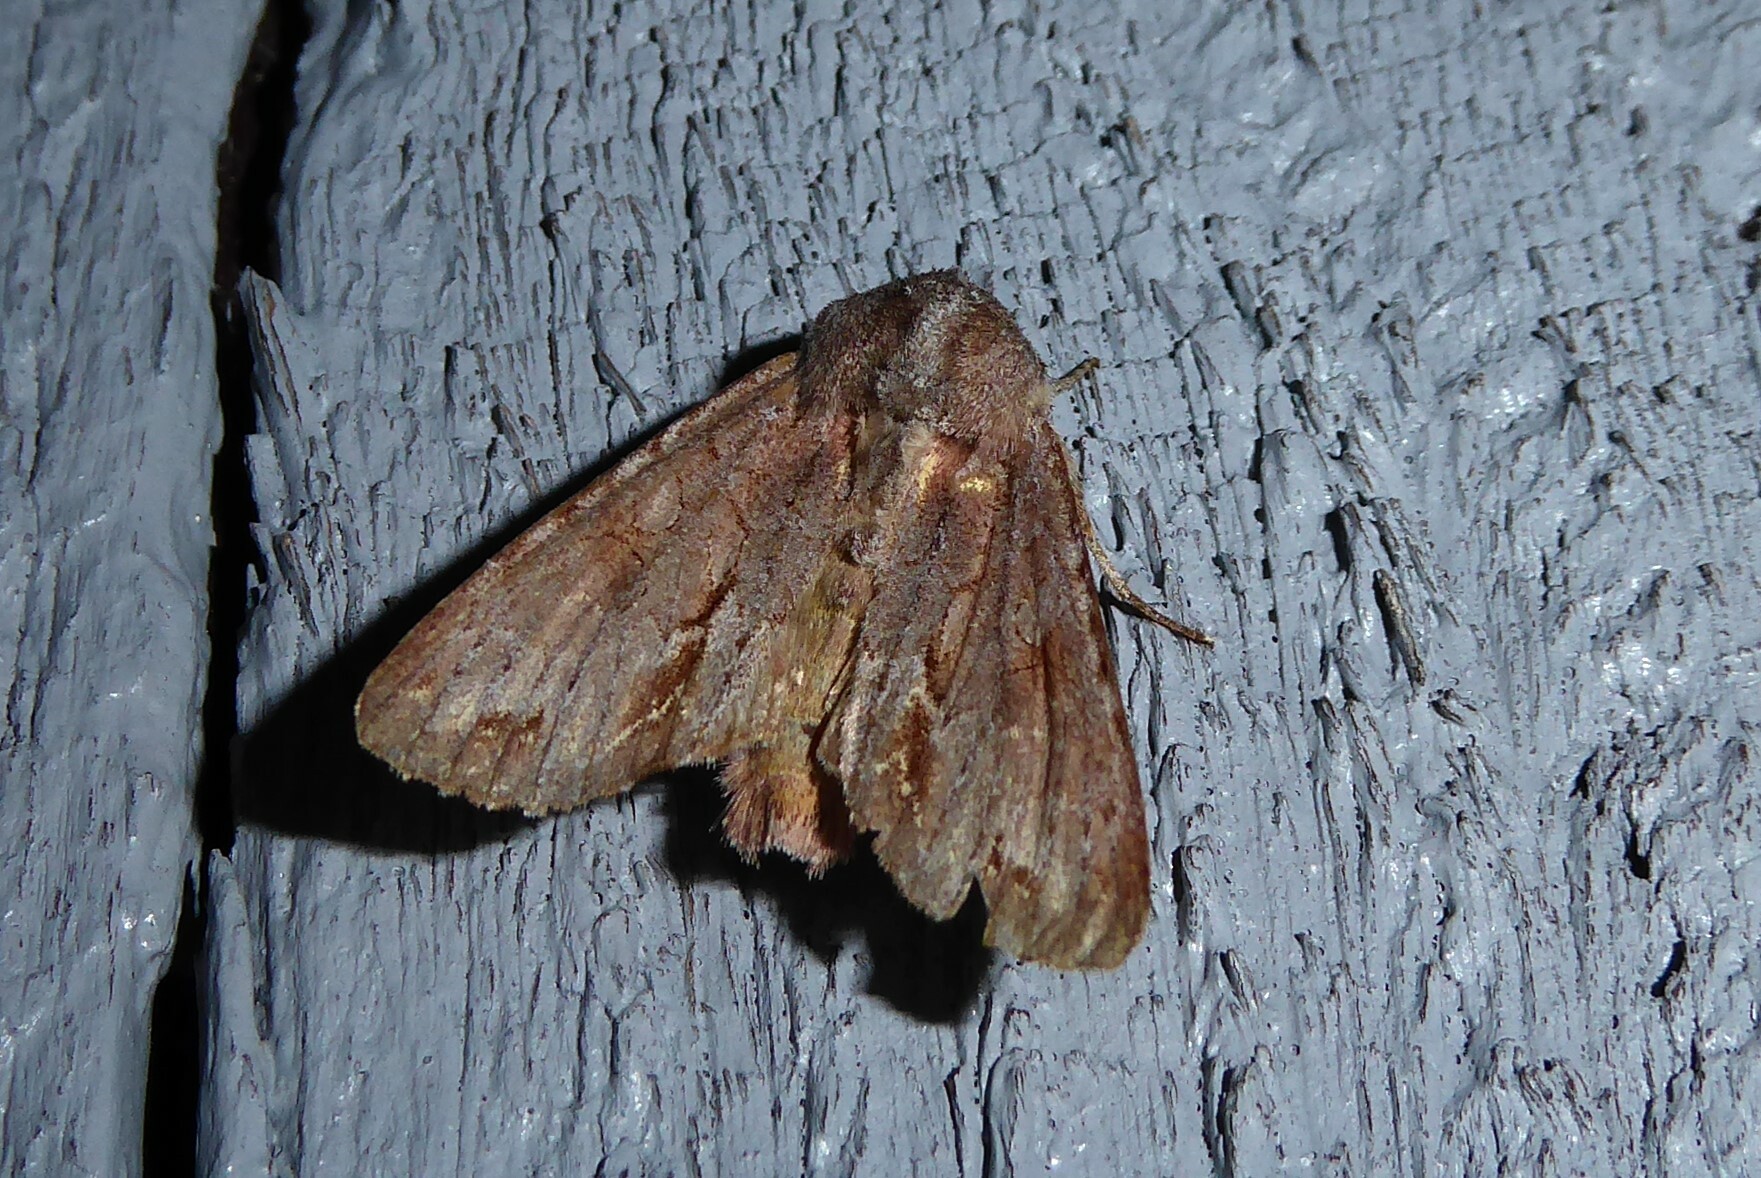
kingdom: Animalia
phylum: Arthropoda
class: Insecta
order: Lepidoptera
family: Noctuidae
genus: Ichneutica
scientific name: Ichneutica
